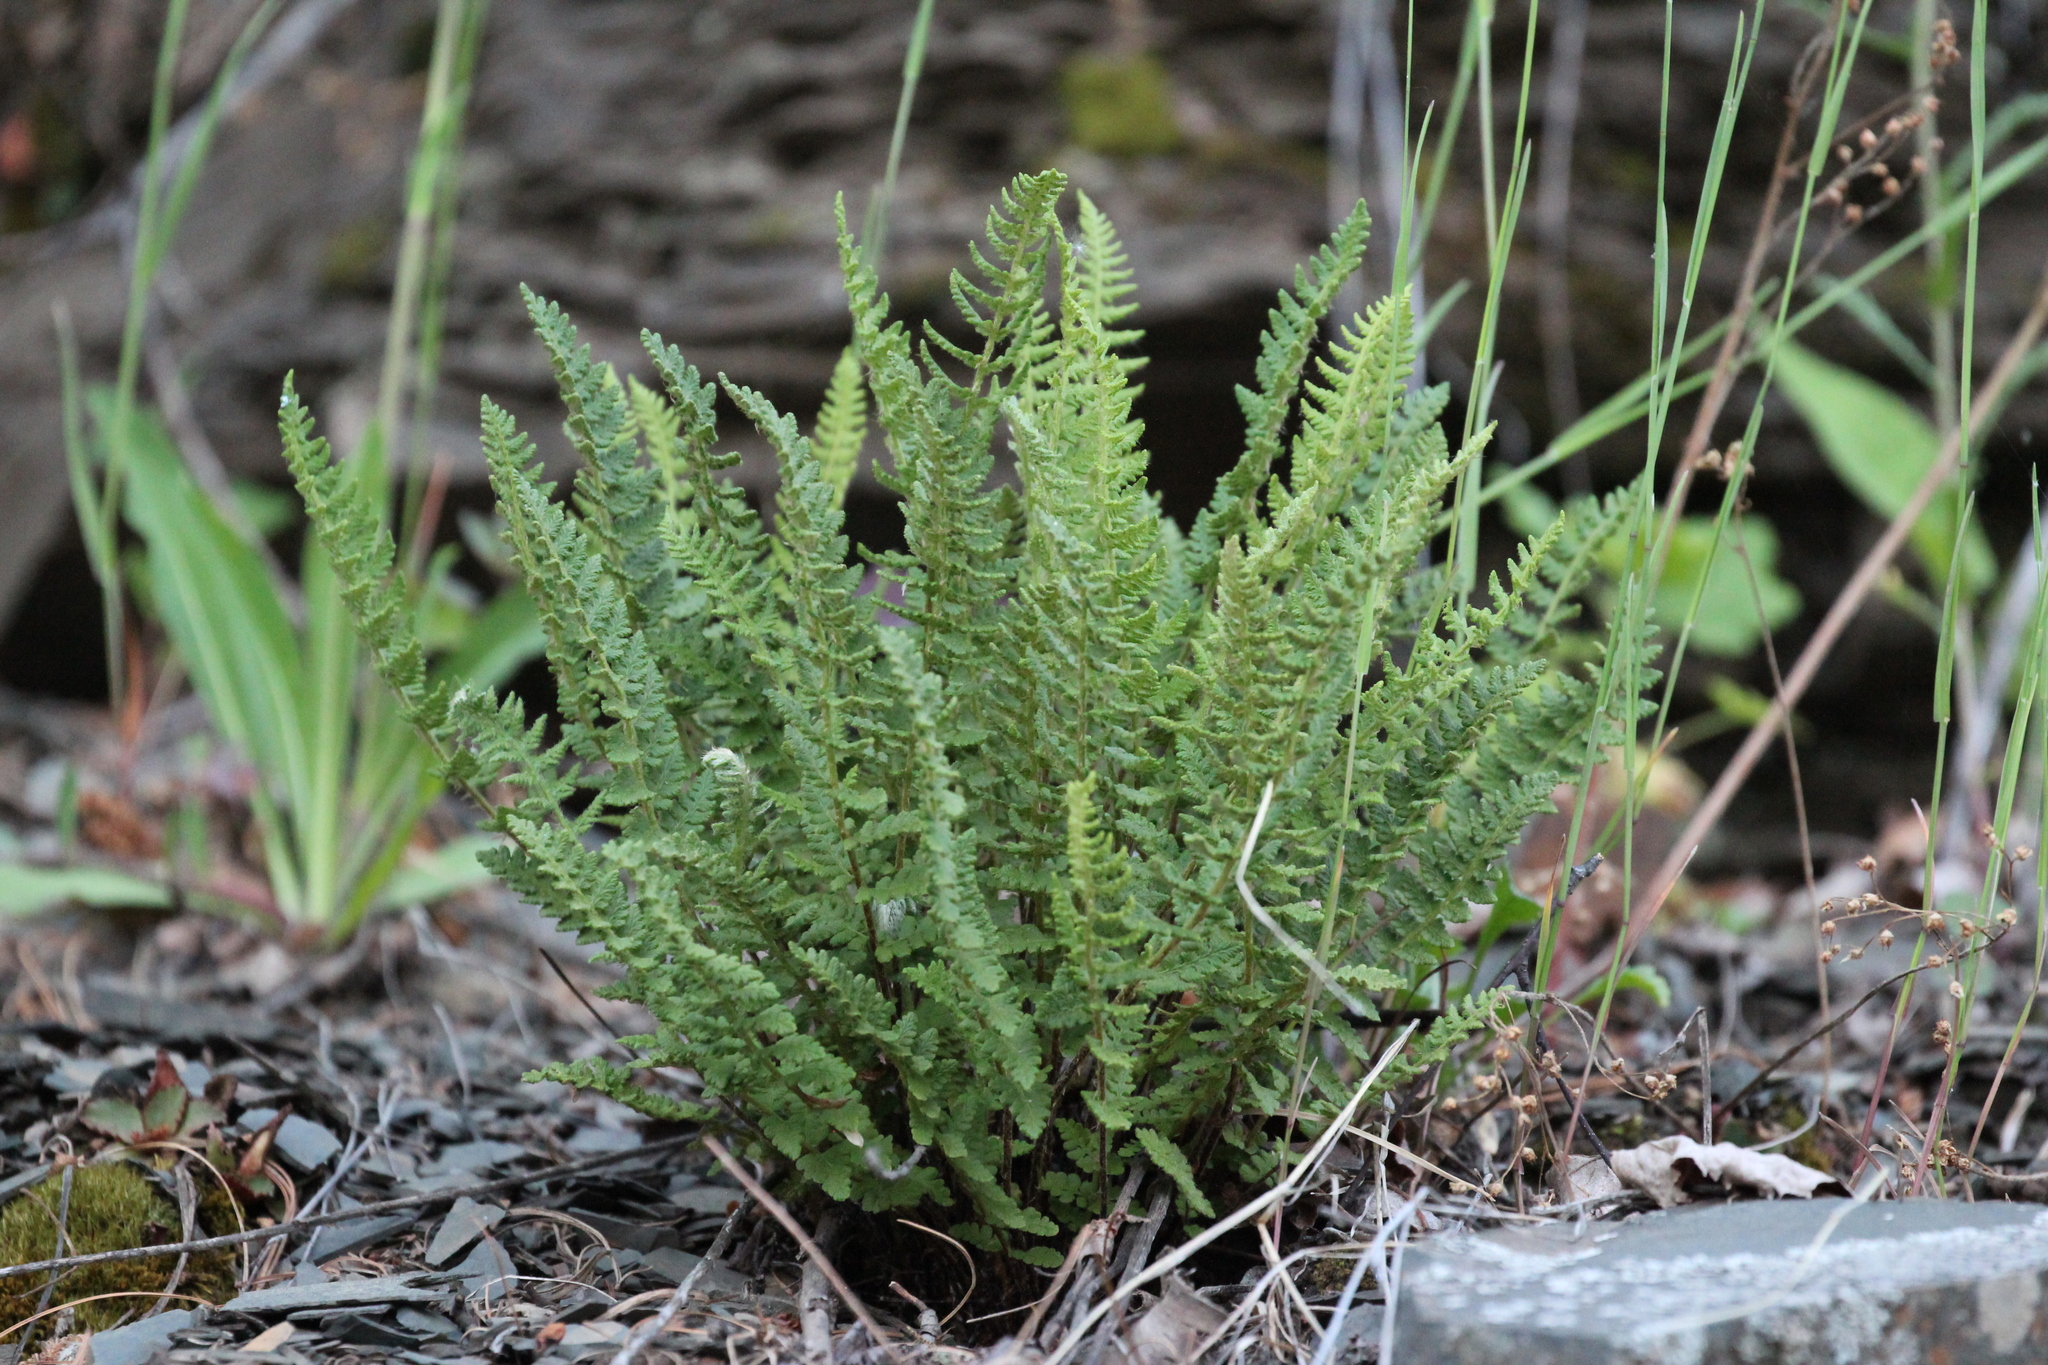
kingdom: Plantae
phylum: Tracheophyta
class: Polypodiopsida
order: Polypodiales
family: Woodsiaceae
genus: Woodsia
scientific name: Woodsia ilvensis
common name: Fragrant woodsia
